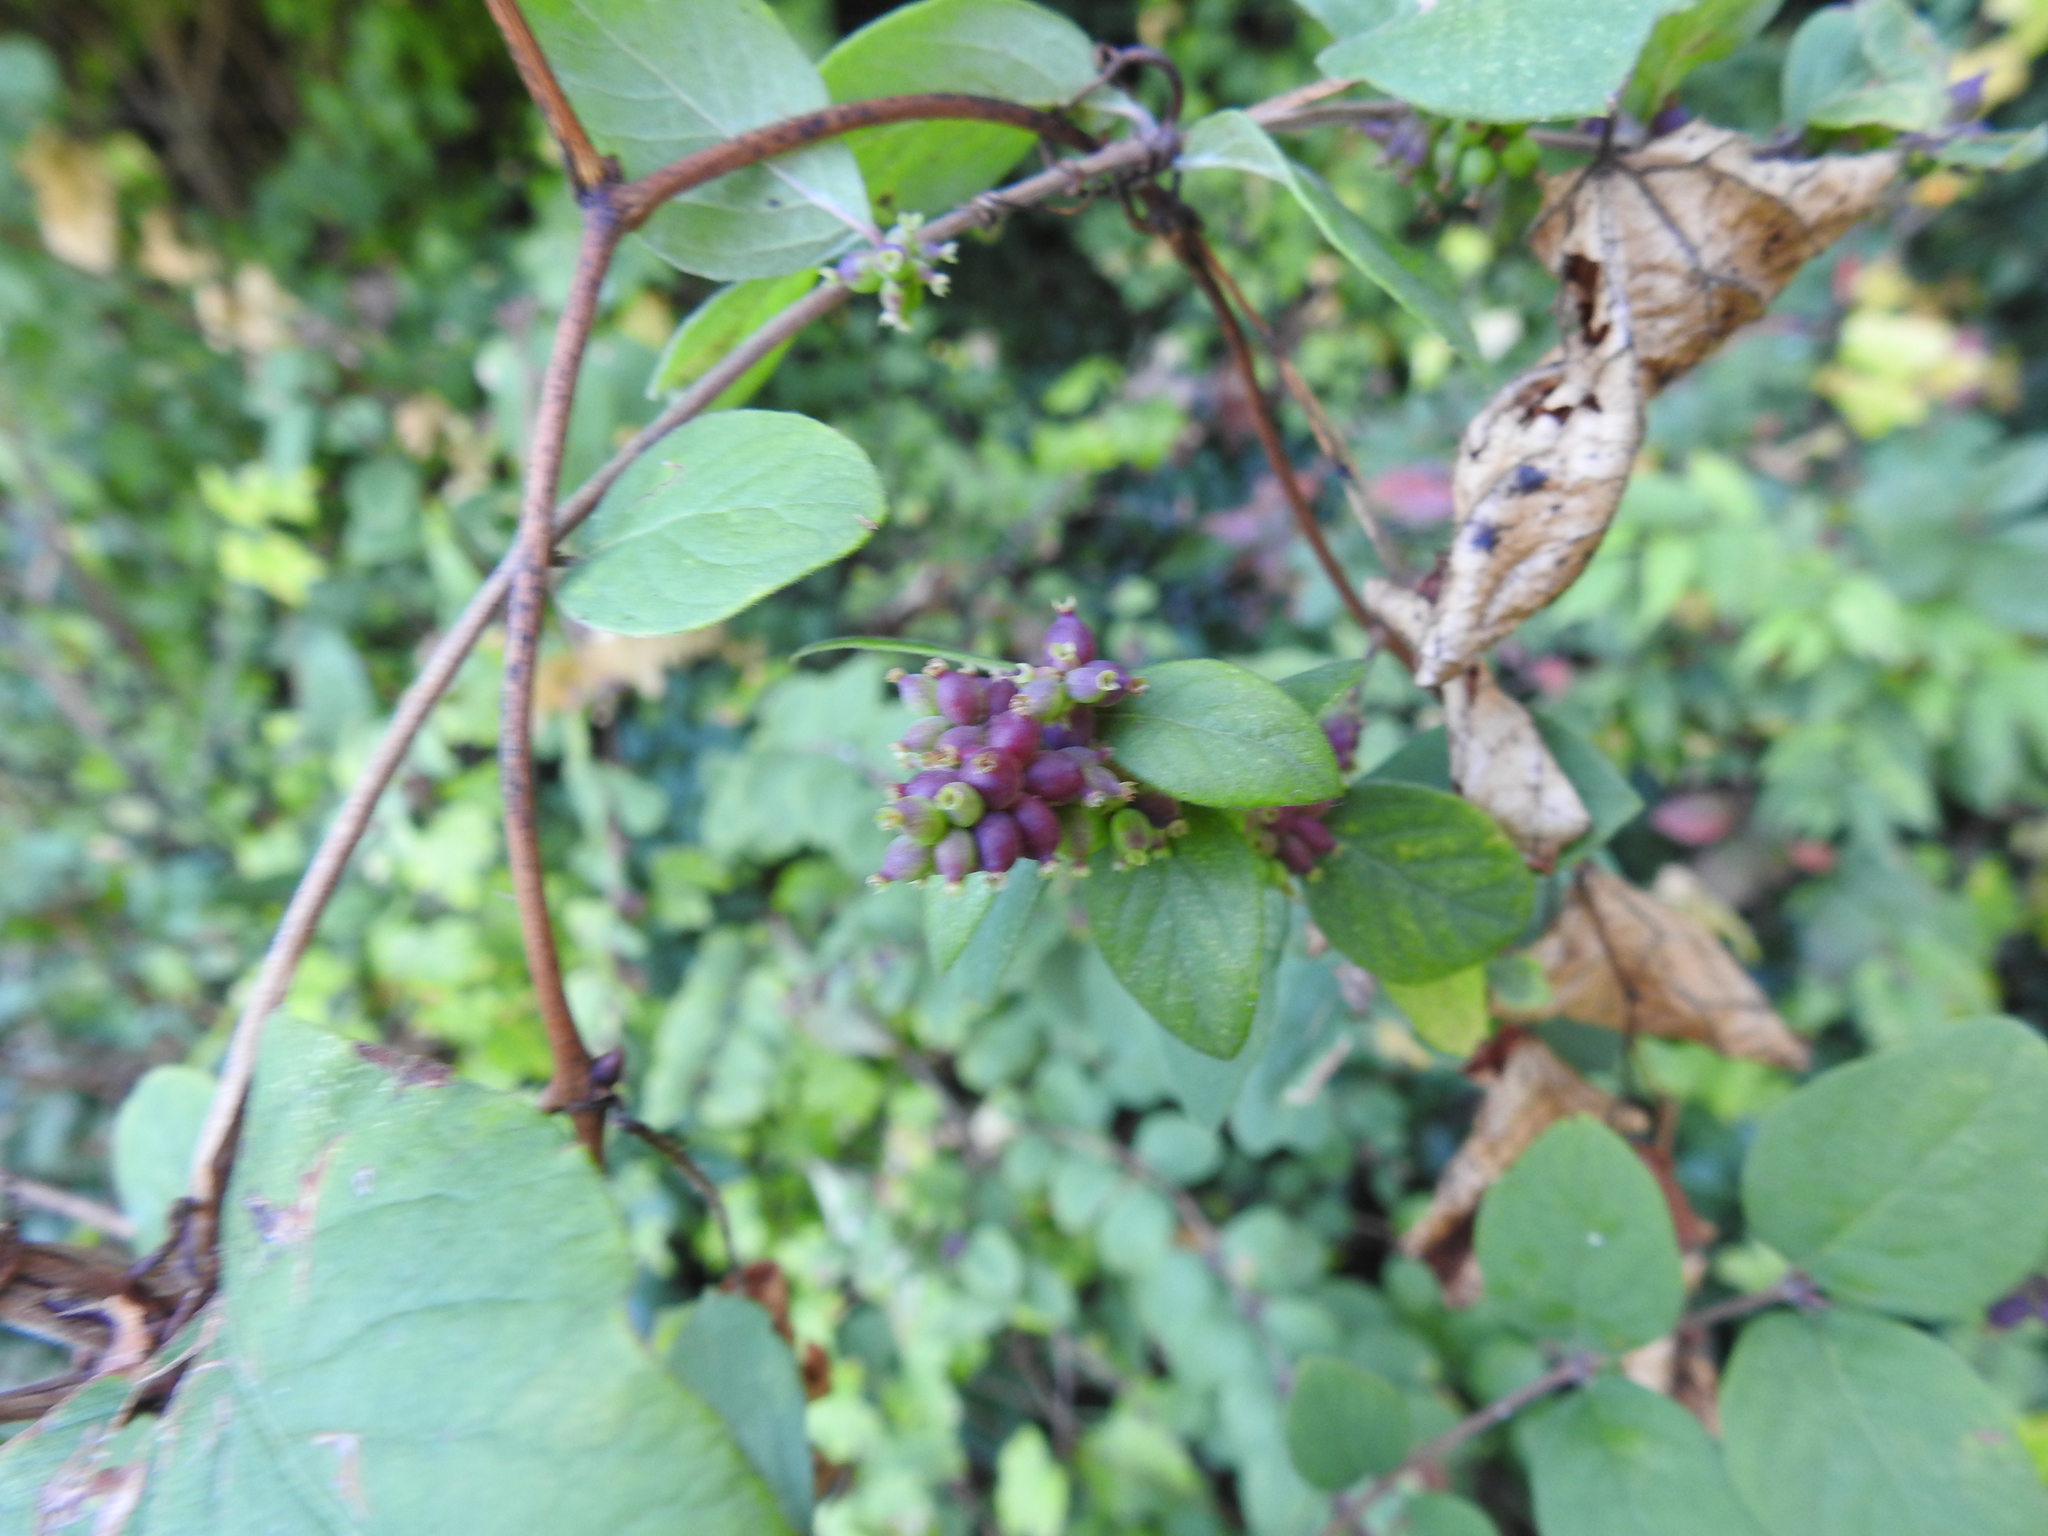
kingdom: Plantae
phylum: Tracheophyta
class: Magnoliopsida
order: Dipsacales
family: Caprifoliaceae
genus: Symphoricarpos
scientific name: Symphoricarpos orbiculatus
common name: Coralberry
